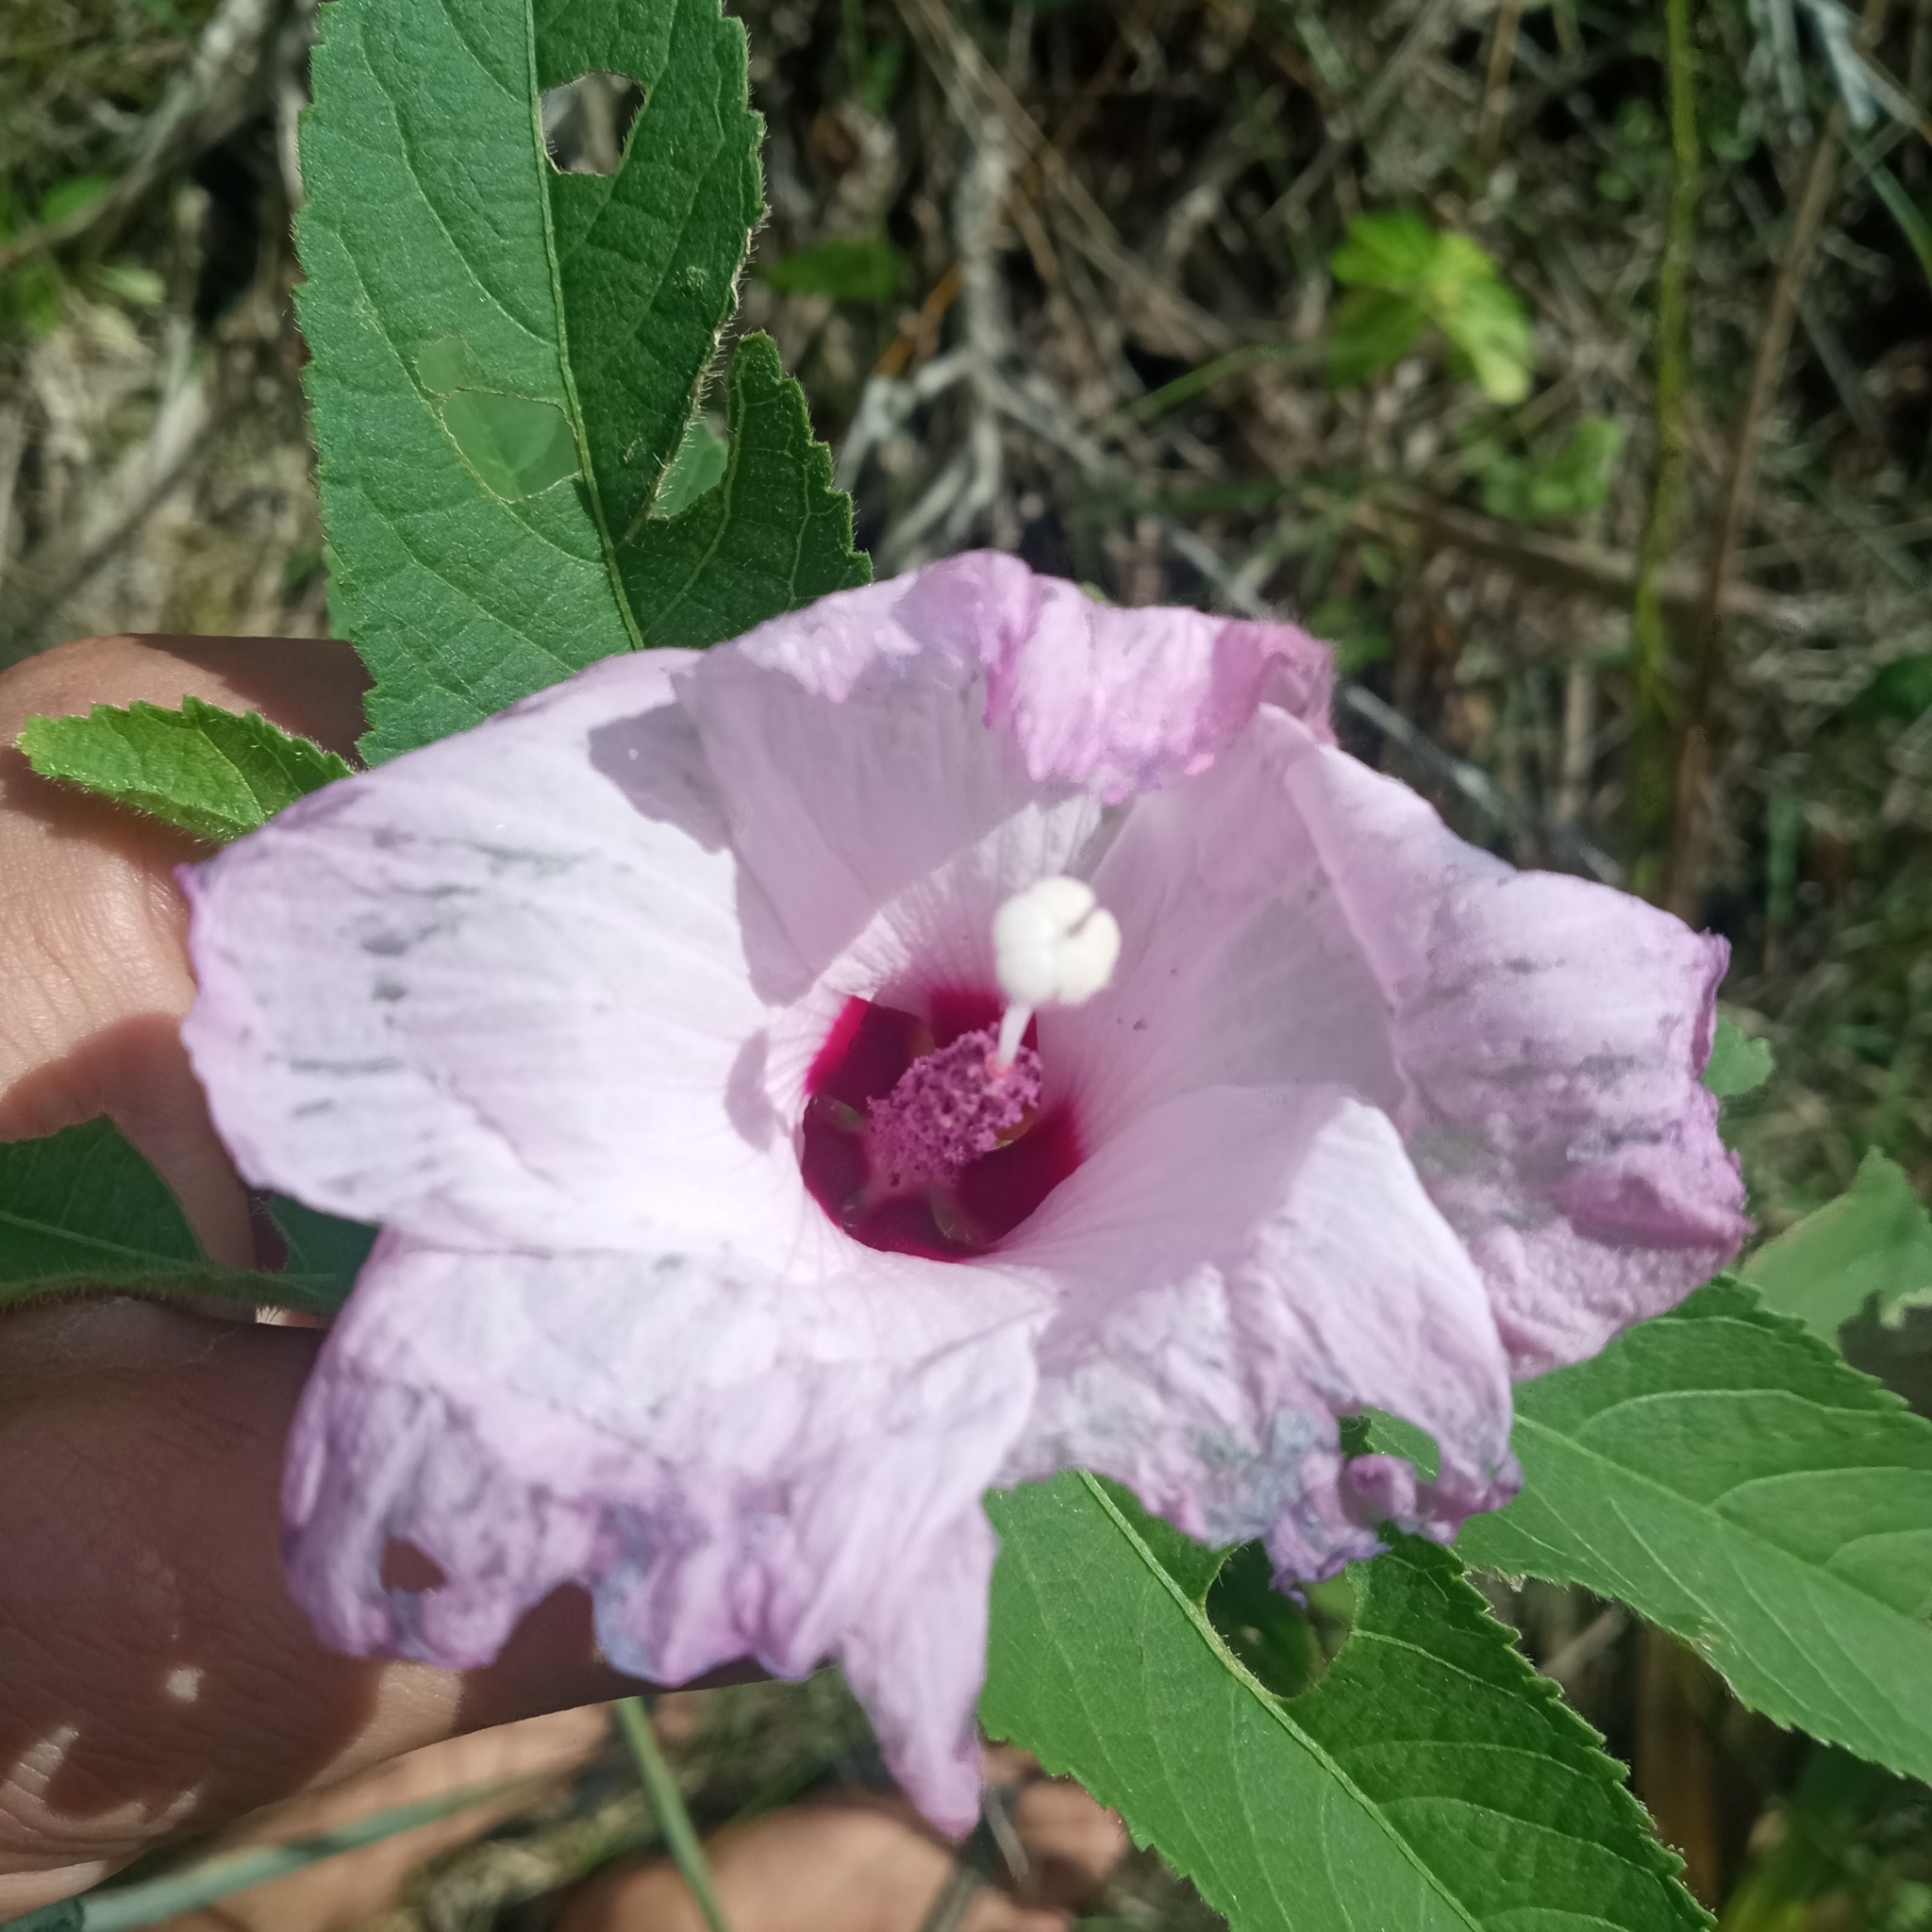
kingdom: Plantae
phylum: Tracheophyta
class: Magnoliopsida
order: Malvales
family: Malvaceae
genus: Hibiscus
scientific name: Hibiscus striatus
